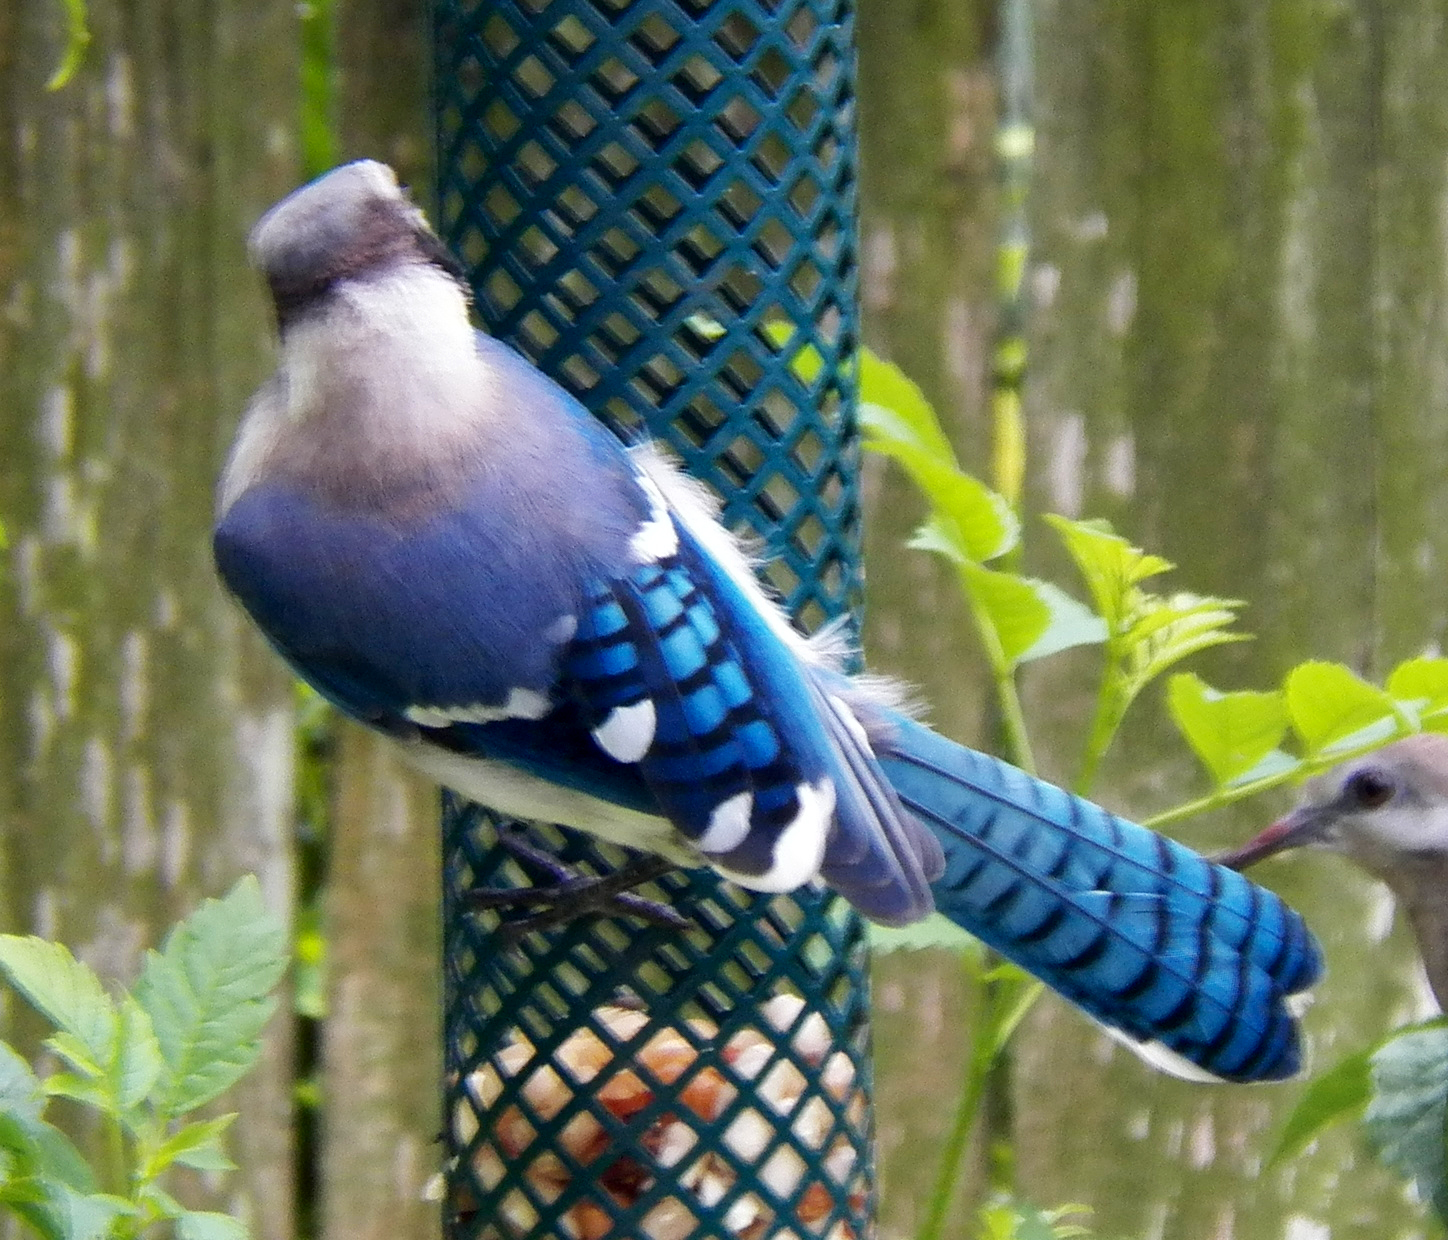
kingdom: Animalia
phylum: Chordata
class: Aves
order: Passeriformes
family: Corvidae
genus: Cyanocitta
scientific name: Cyanocitta cristata
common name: Blue jay
